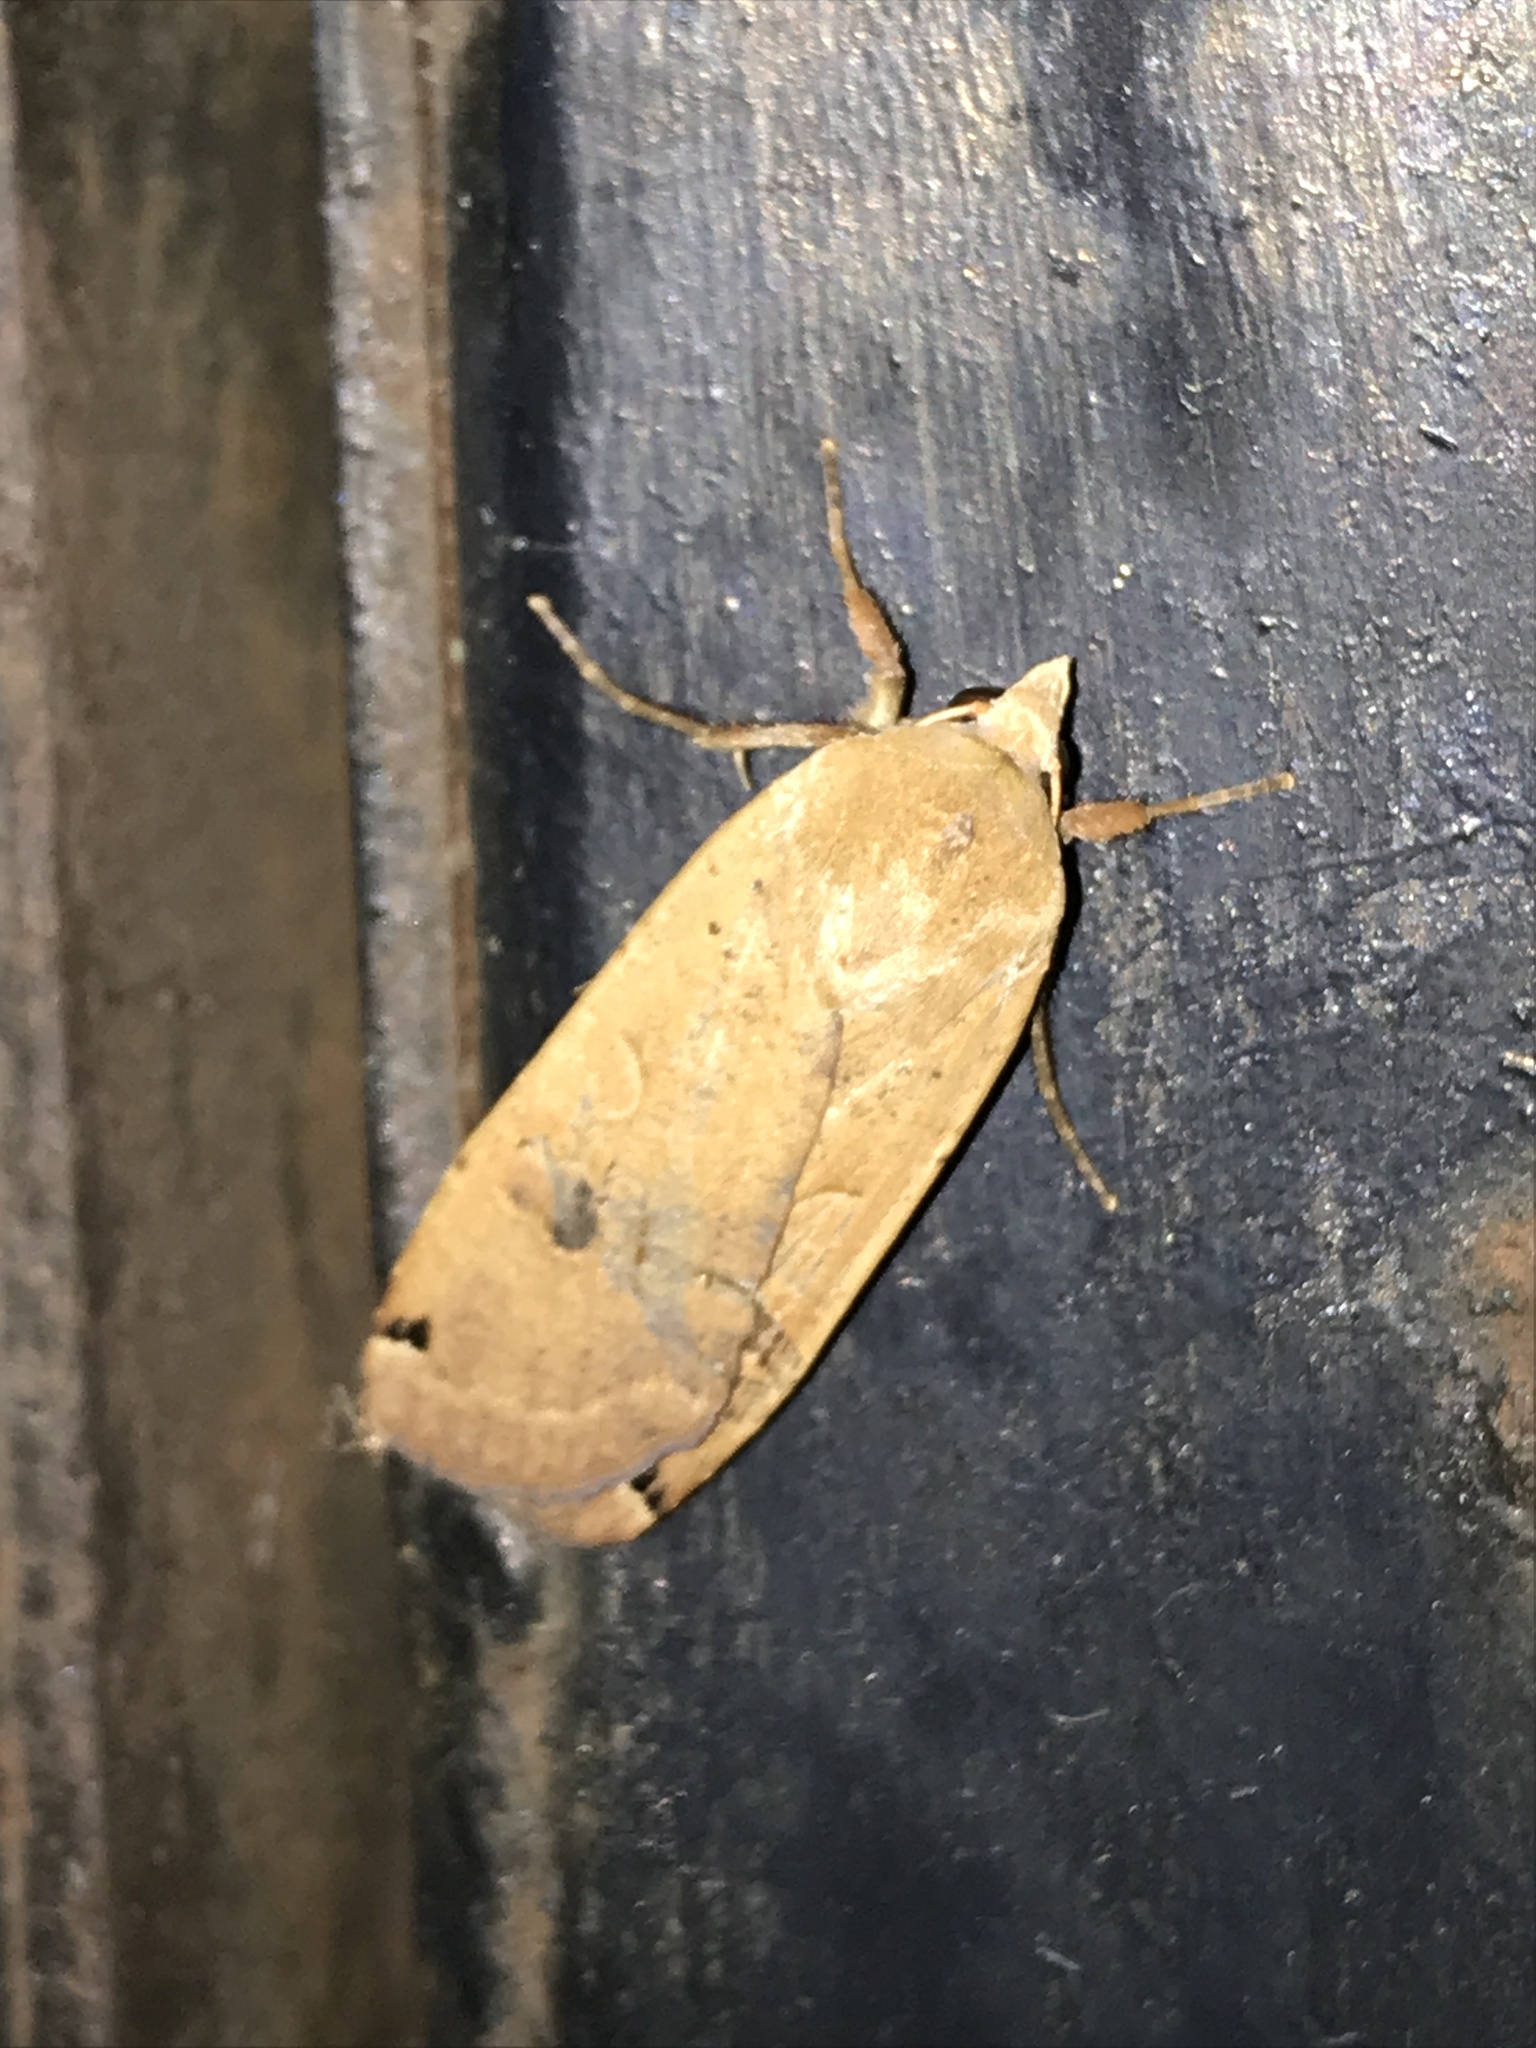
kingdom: Animalia
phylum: Arthropoda
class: Insecta
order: Lepidoptera
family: Noctuidae
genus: Noctua
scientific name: Noctua pronuba
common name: Large yellow underwing
